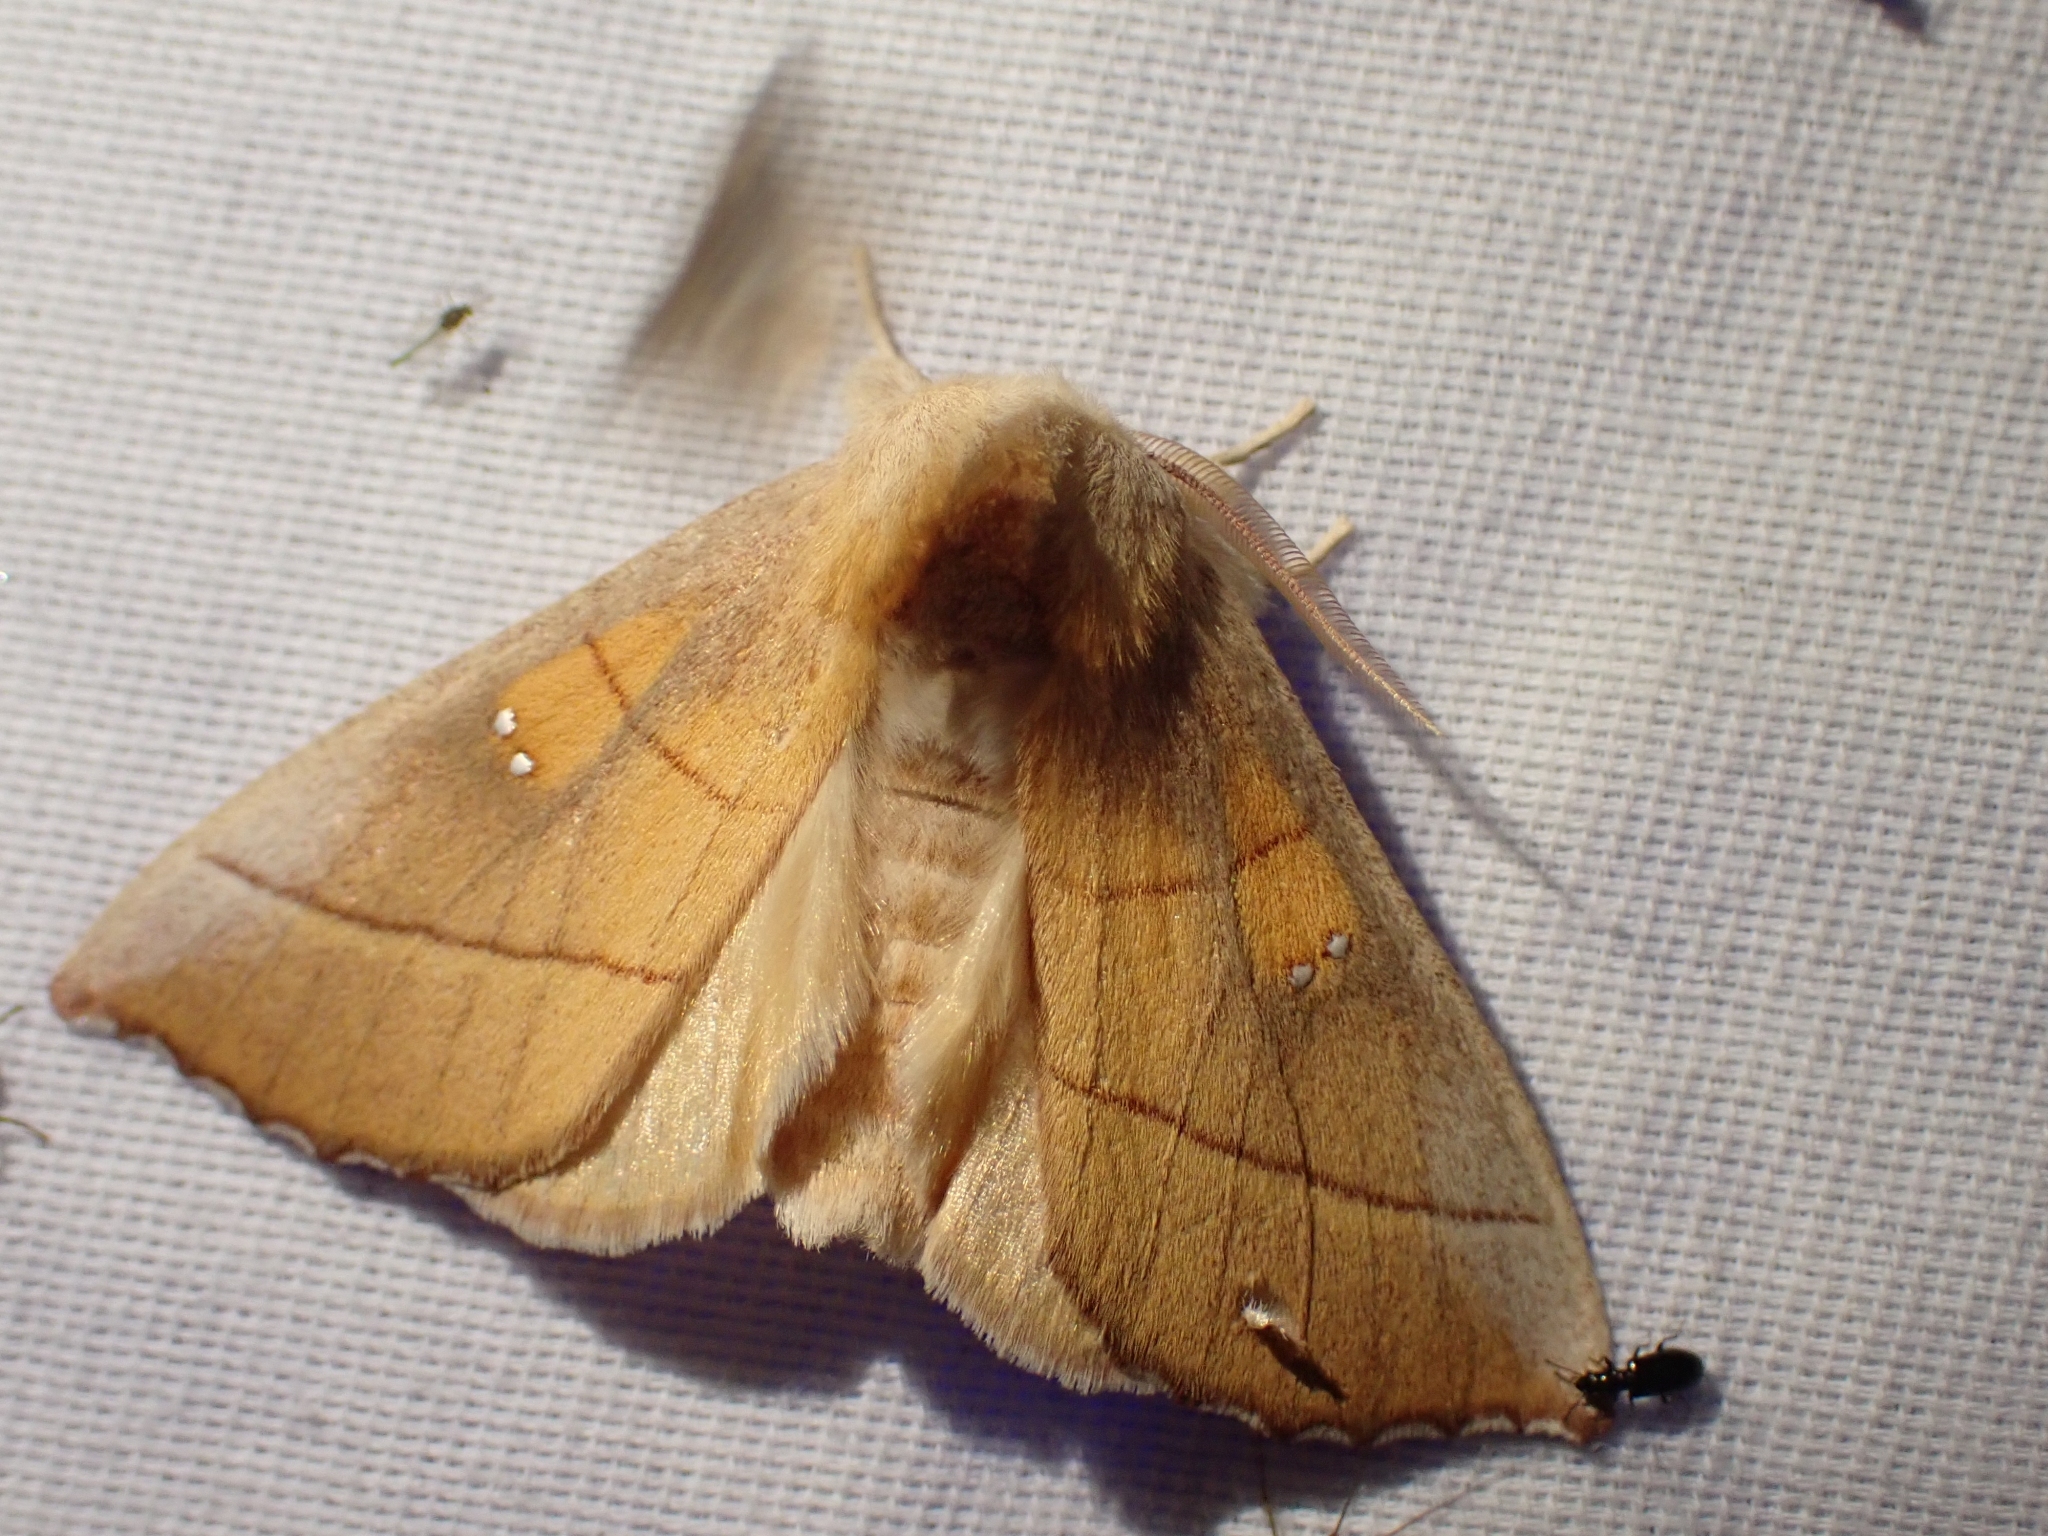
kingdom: Animalia
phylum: Arthropoda
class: Insecta
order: Lepidoptera
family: Notodontidae
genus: Nadata
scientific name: Nadata gibbosa
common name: White-dotted prominent
